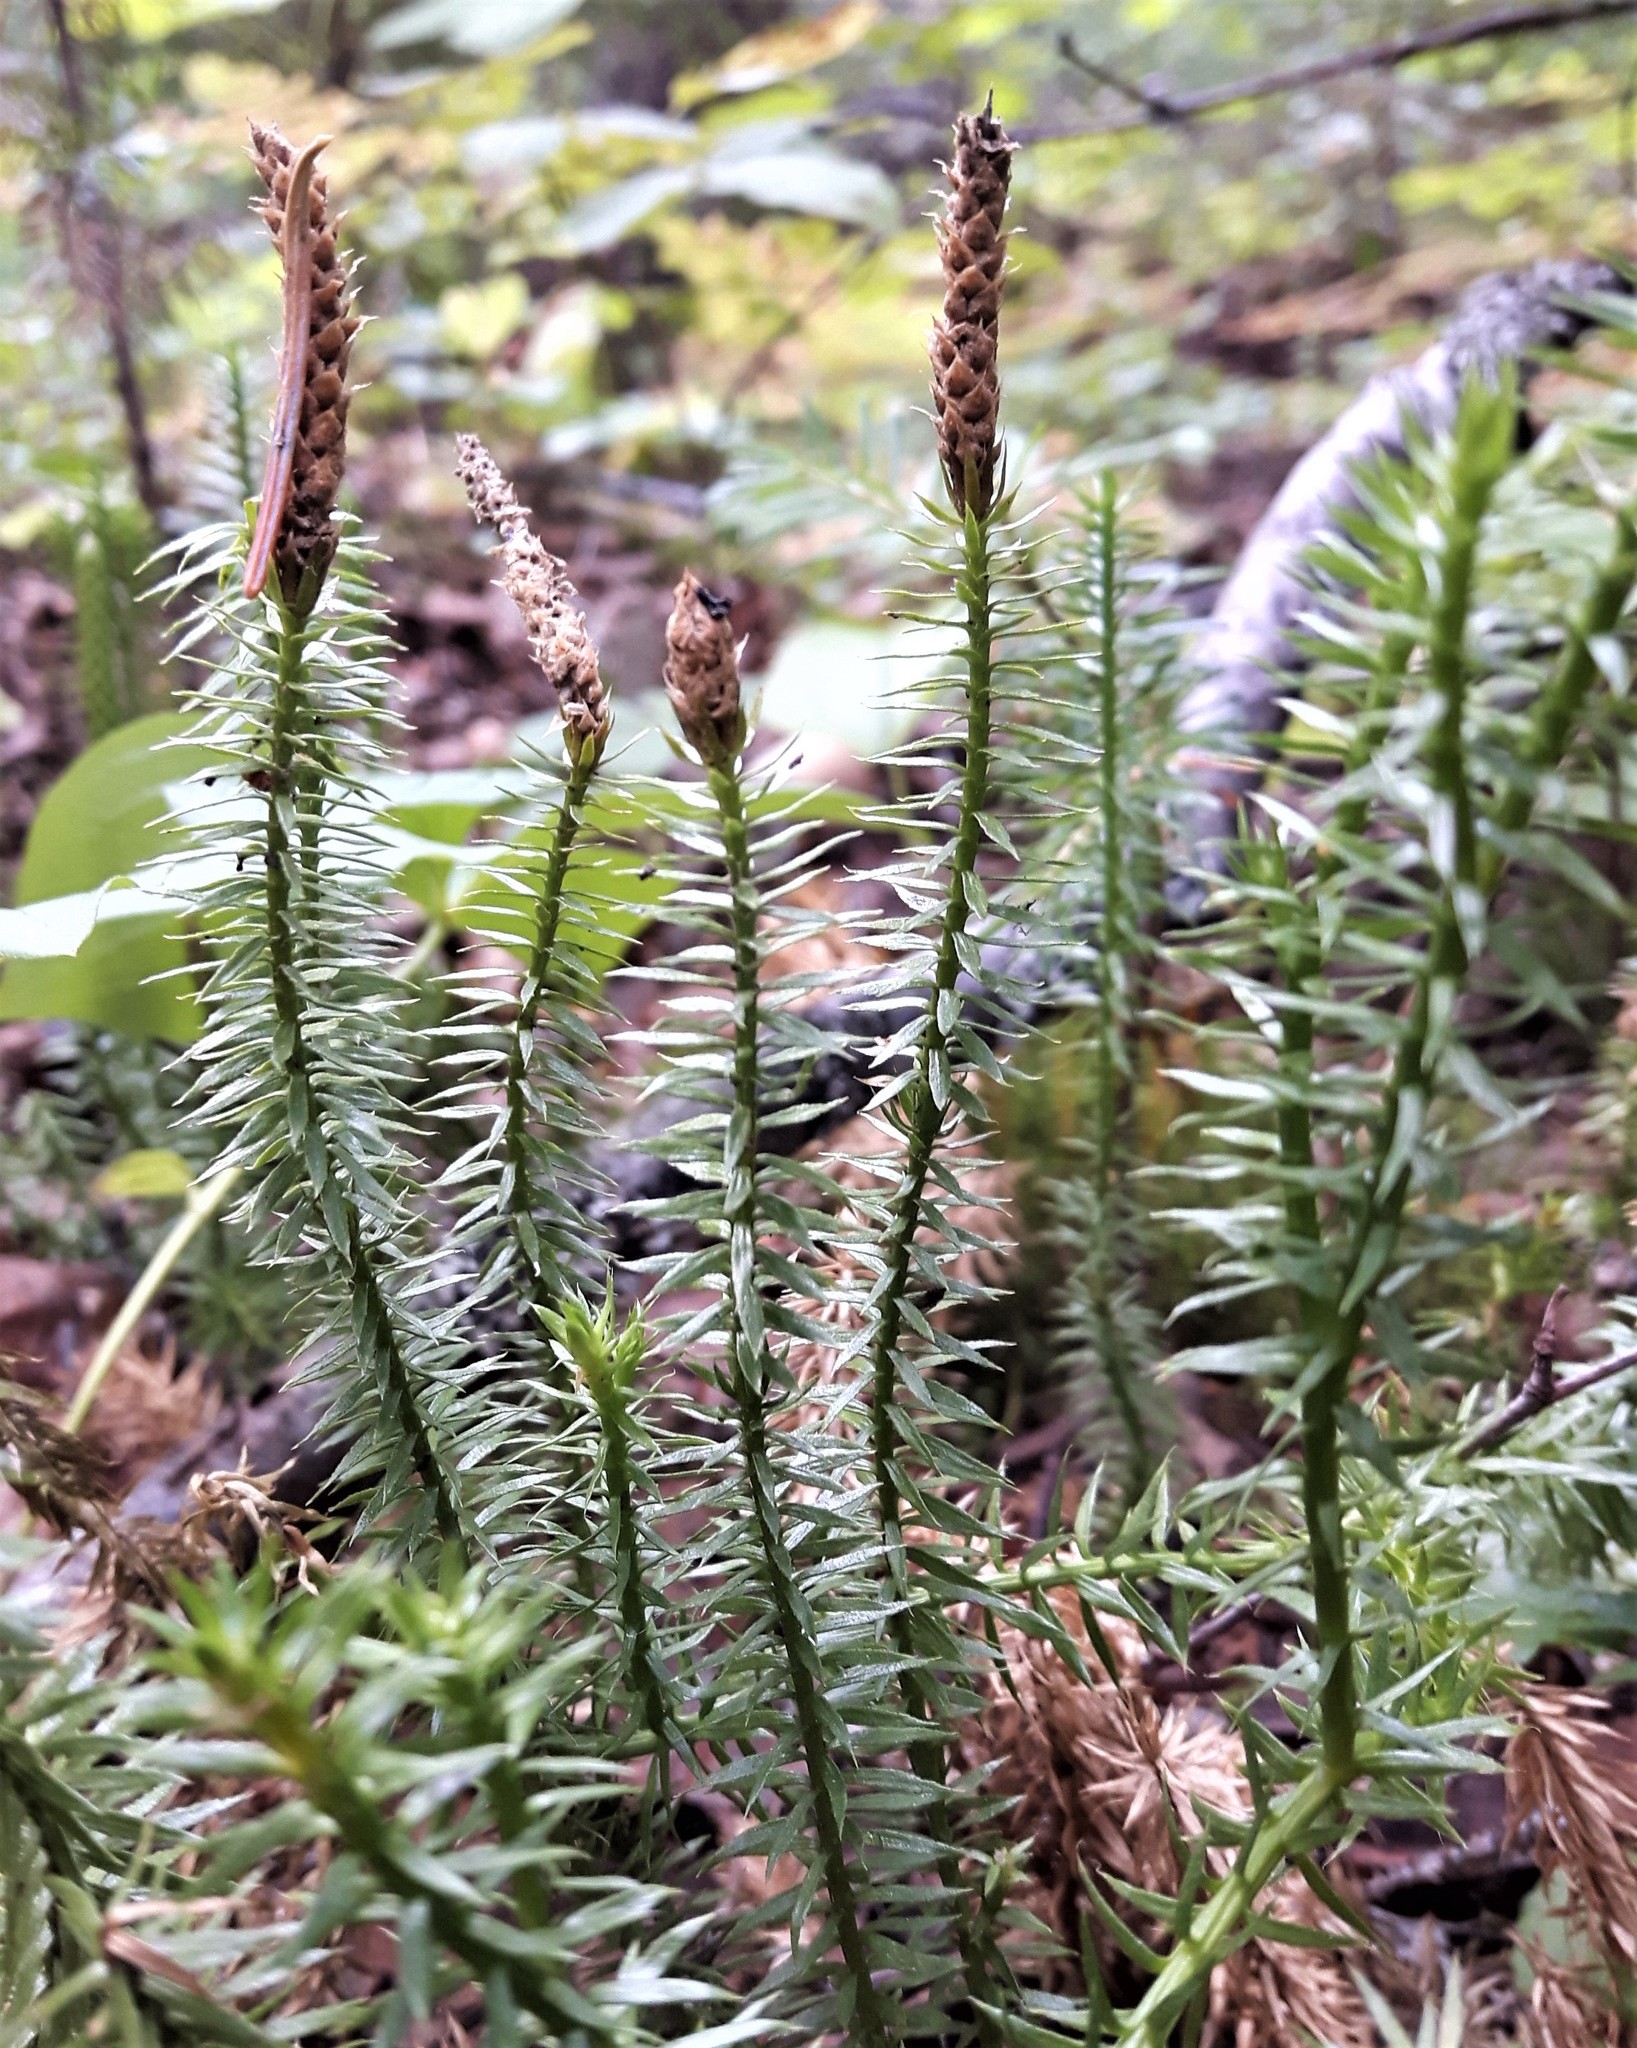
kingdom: Plantae
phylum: Tracheophyta
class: Lycopodiopsida
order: Lycopodiales
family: Lycopodiaceae
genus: Spinulum
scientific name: Spinulum annotinum
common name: Interrupted club-moss
